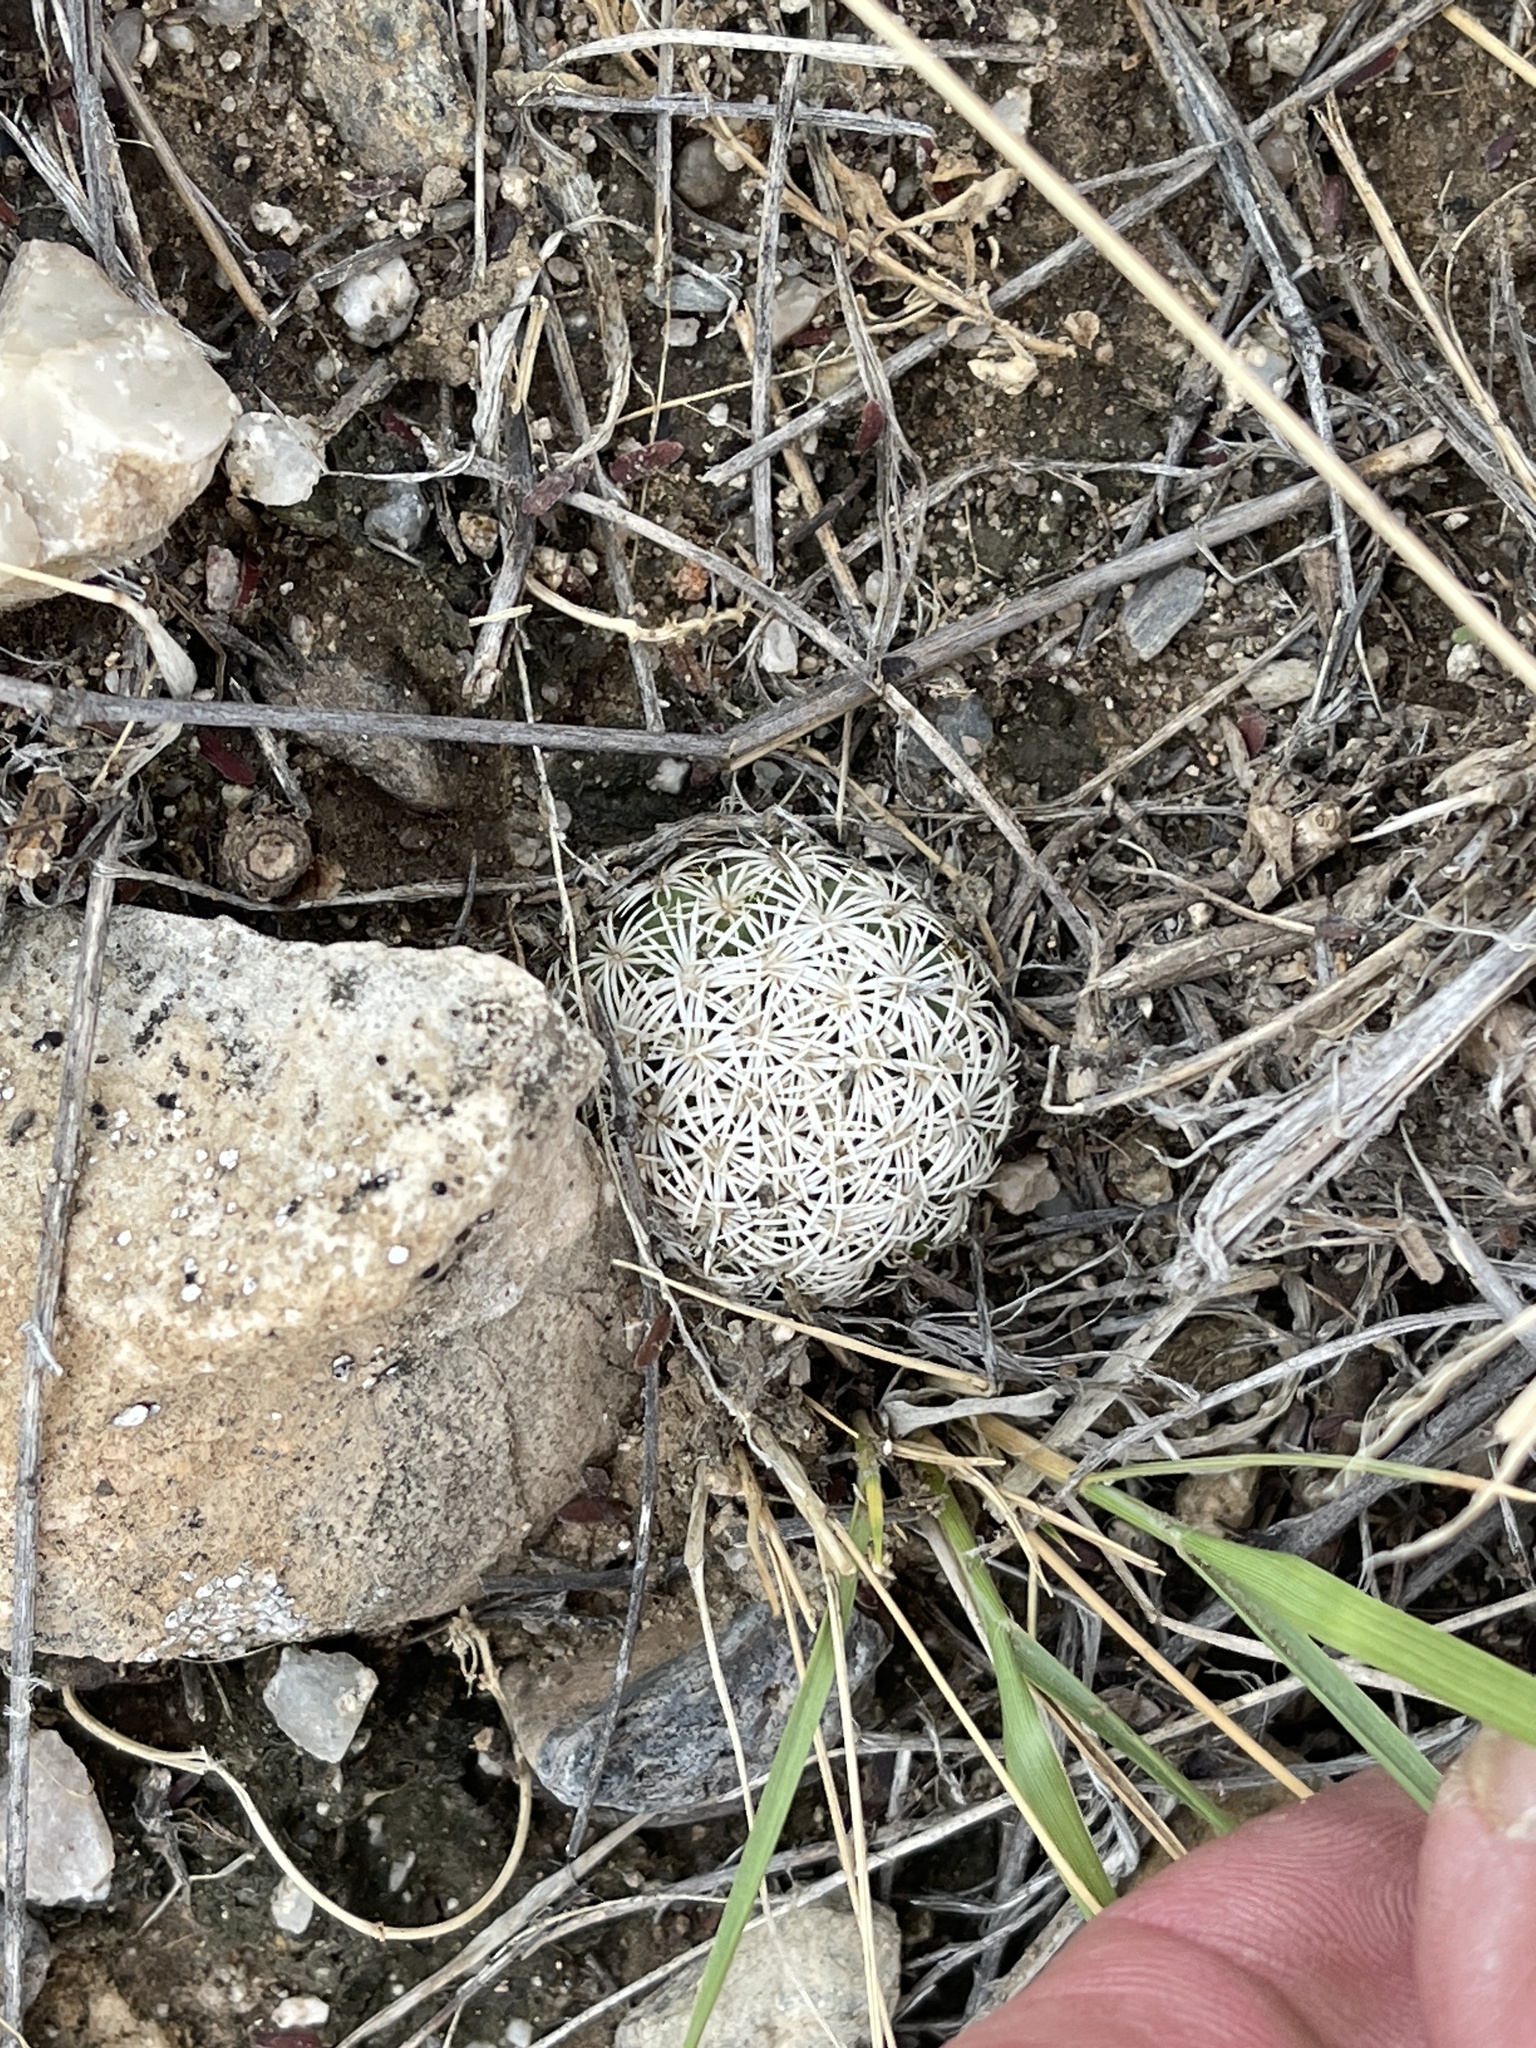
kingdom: Plantae
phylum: Tracheophyta
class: Magnoliopsida
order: Caryophyllales
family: Cactaceae
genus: Sclerocactus
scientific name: Sclerocactus johnsonii
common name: Eight-spine fishhook cactus
